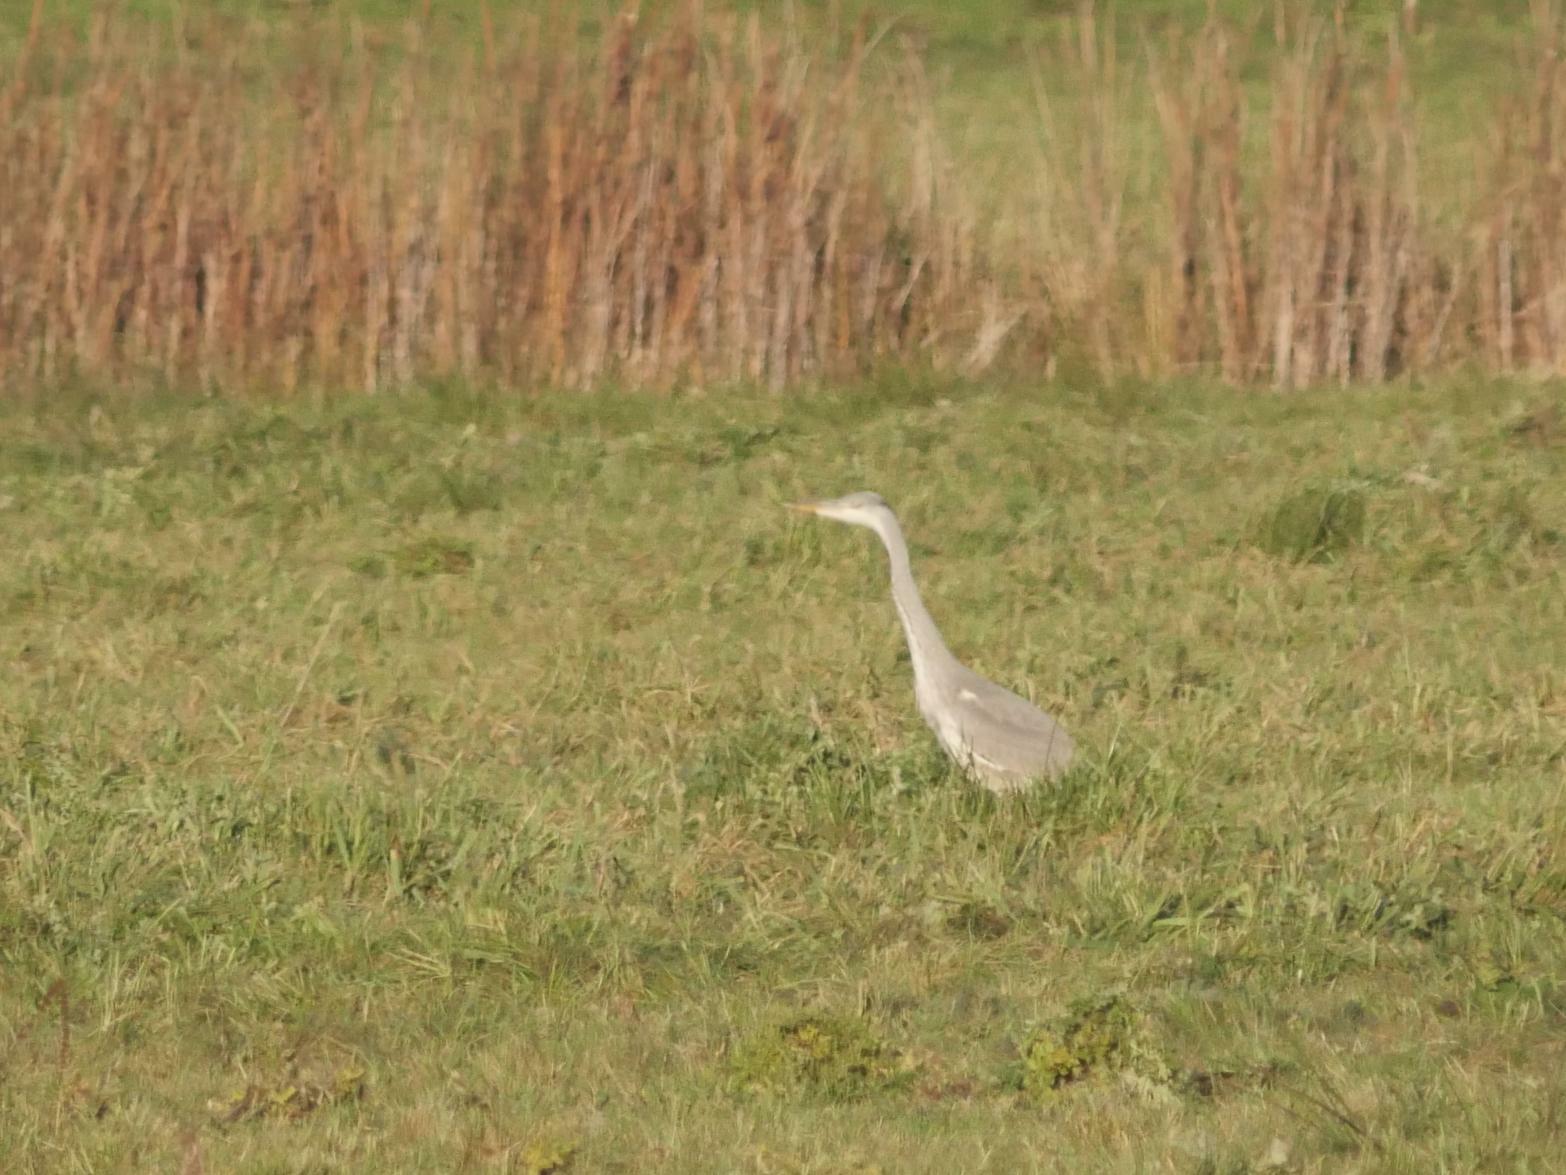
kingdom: Animalia
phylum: Chordata
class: Aves
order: Pelecaniformes
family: Ardeidae
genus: Ardea
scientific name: Ardea cinerea
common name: Grey heron
